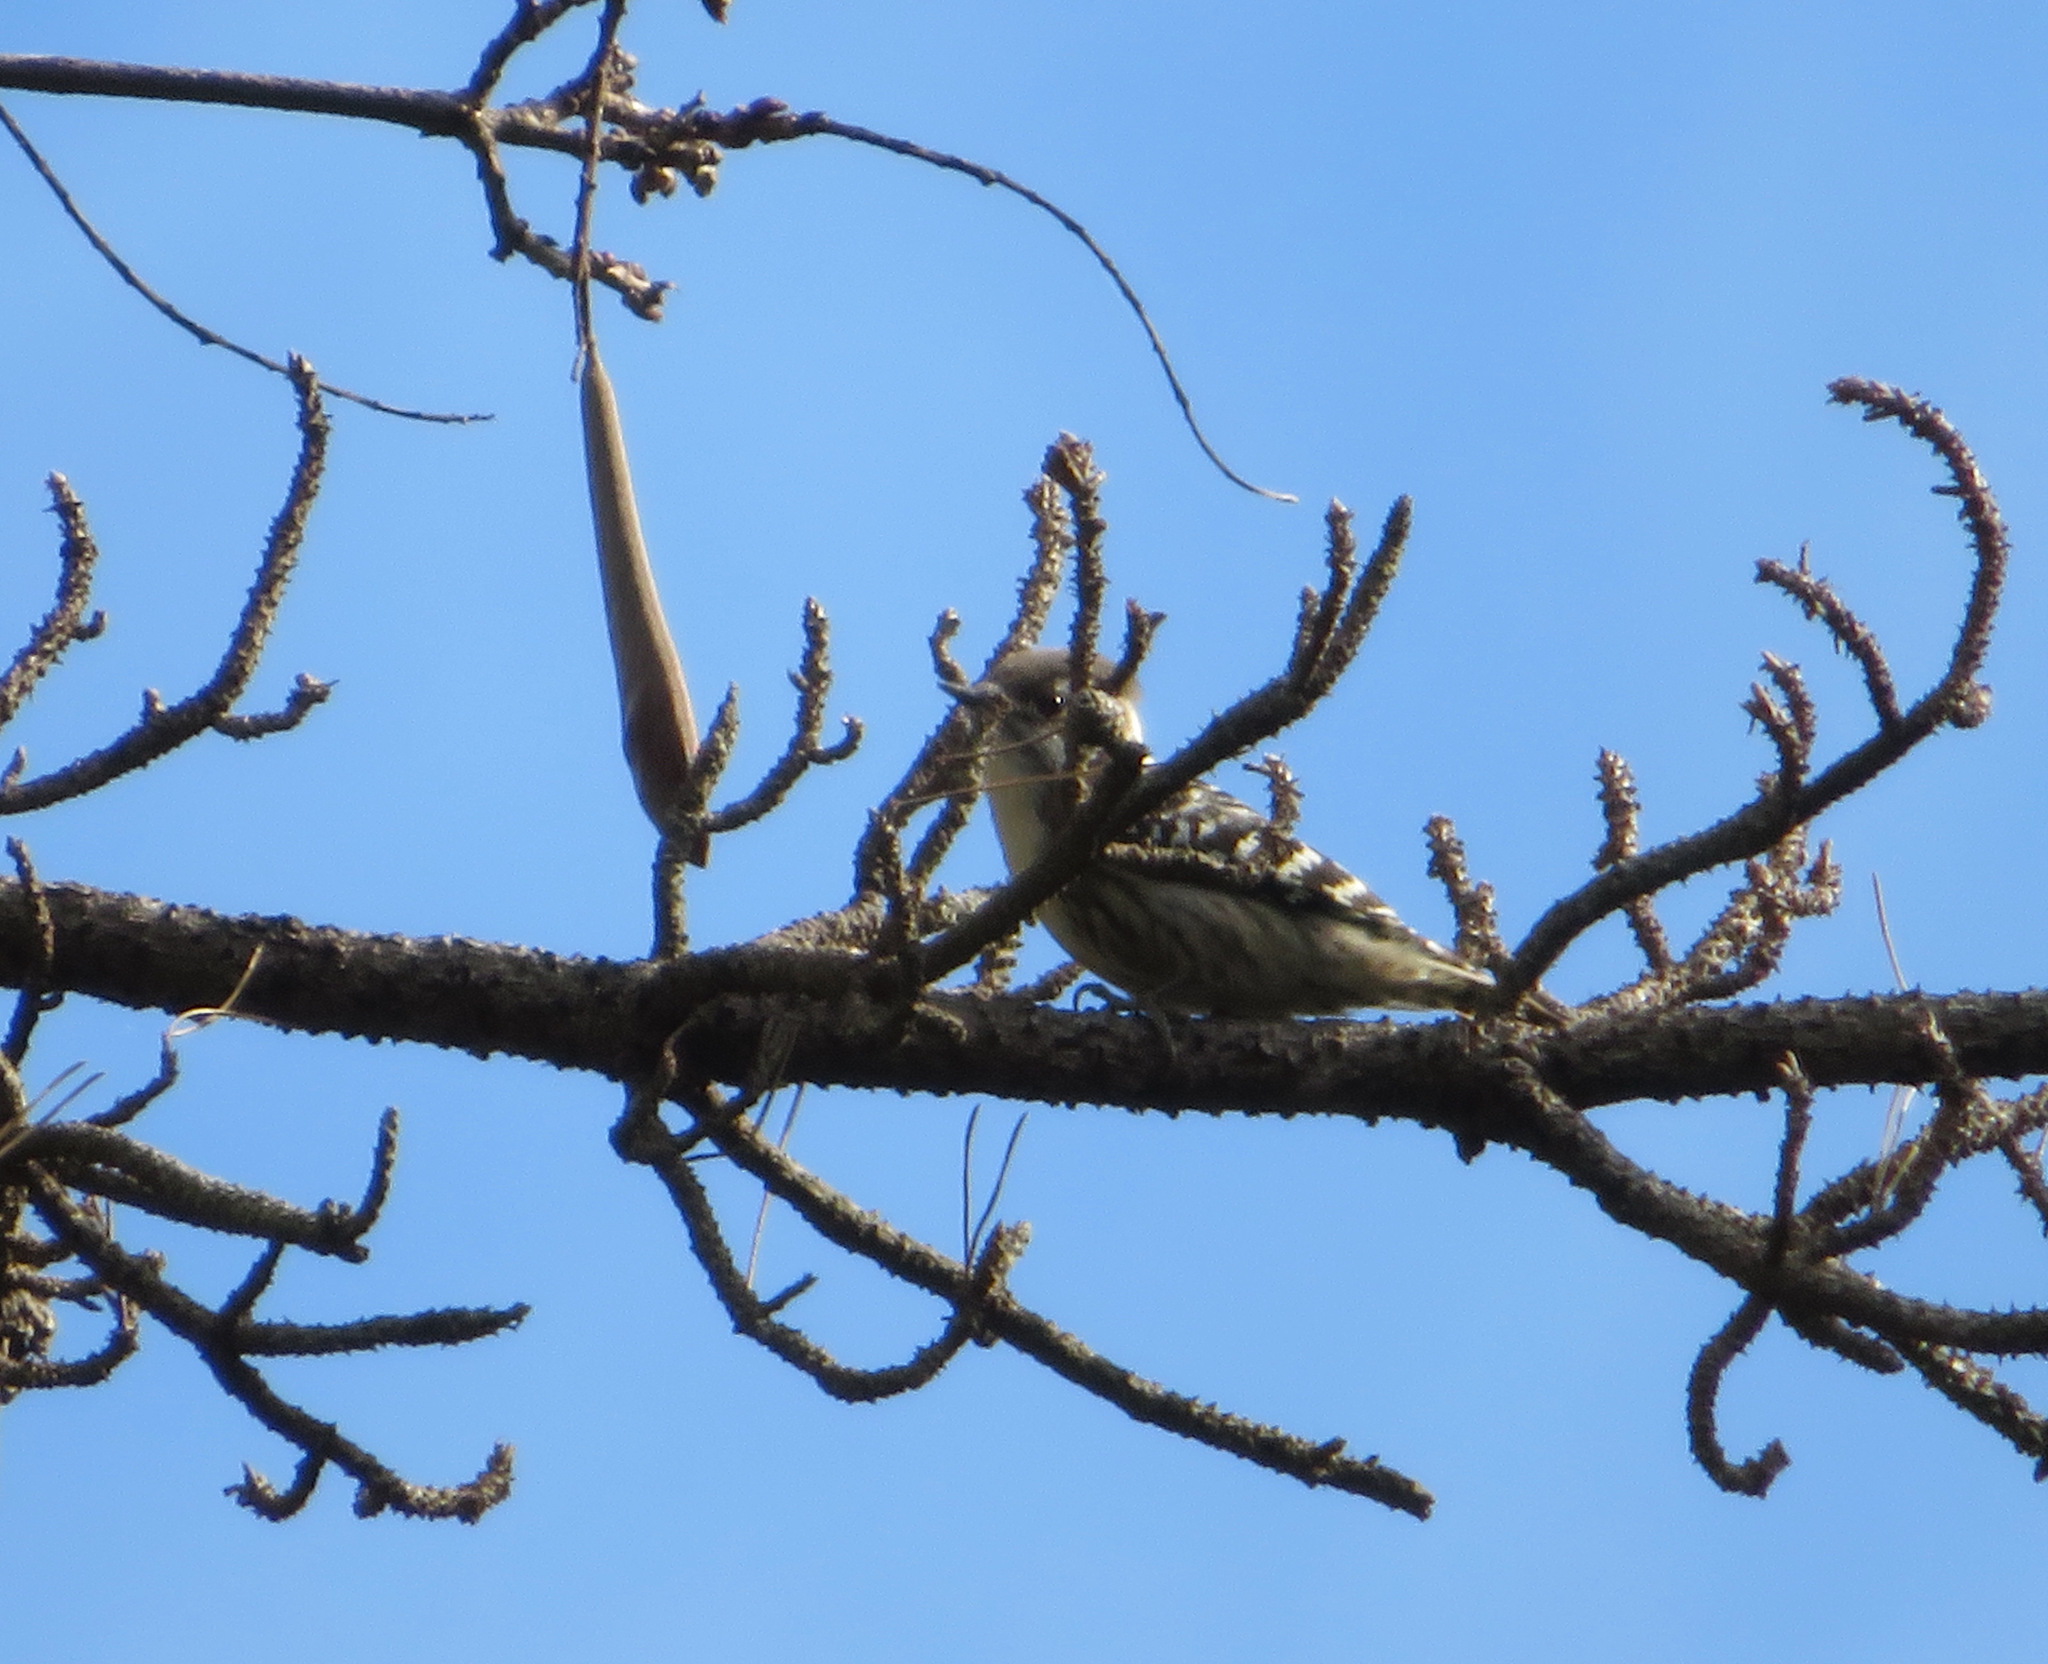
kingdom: Animalia
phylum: Chordata
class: Aves
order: Piciformes
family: Picidae
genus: Yungipicus
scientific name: Yungipicus kizuki
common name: Japanese pygmy woodpecker
